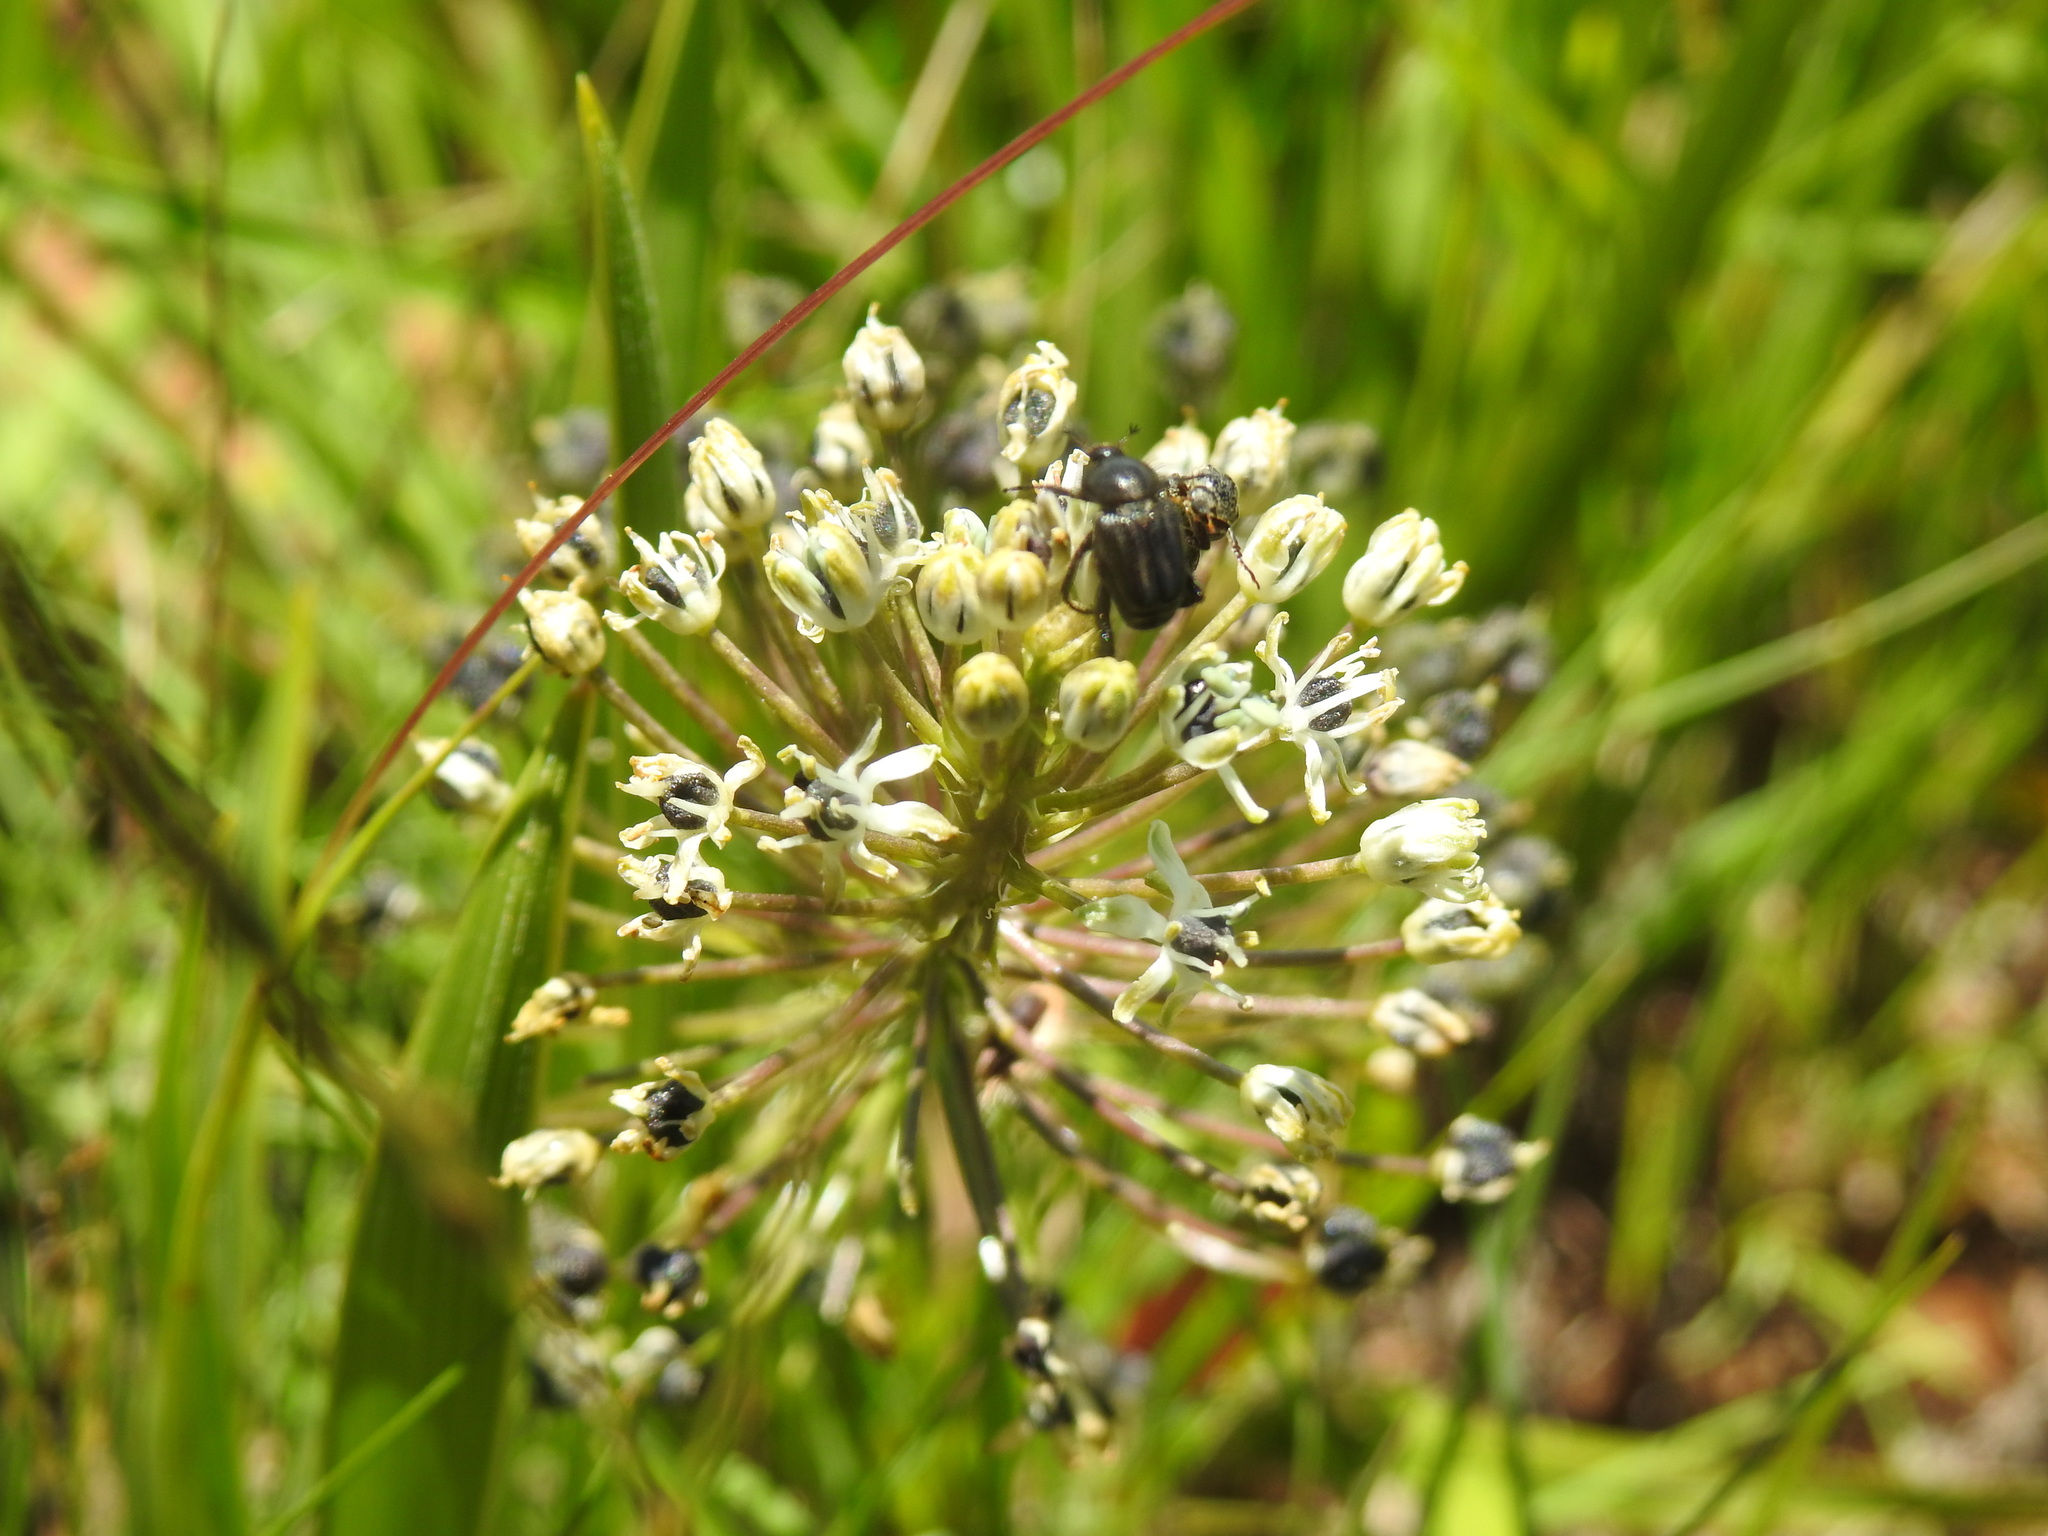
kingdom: Plantae
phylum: Tracheophyta
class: Liliopsida
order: Asparagales
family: Asparagaceae
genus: Schizocarphus
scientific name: Schizocarphus nervosus
